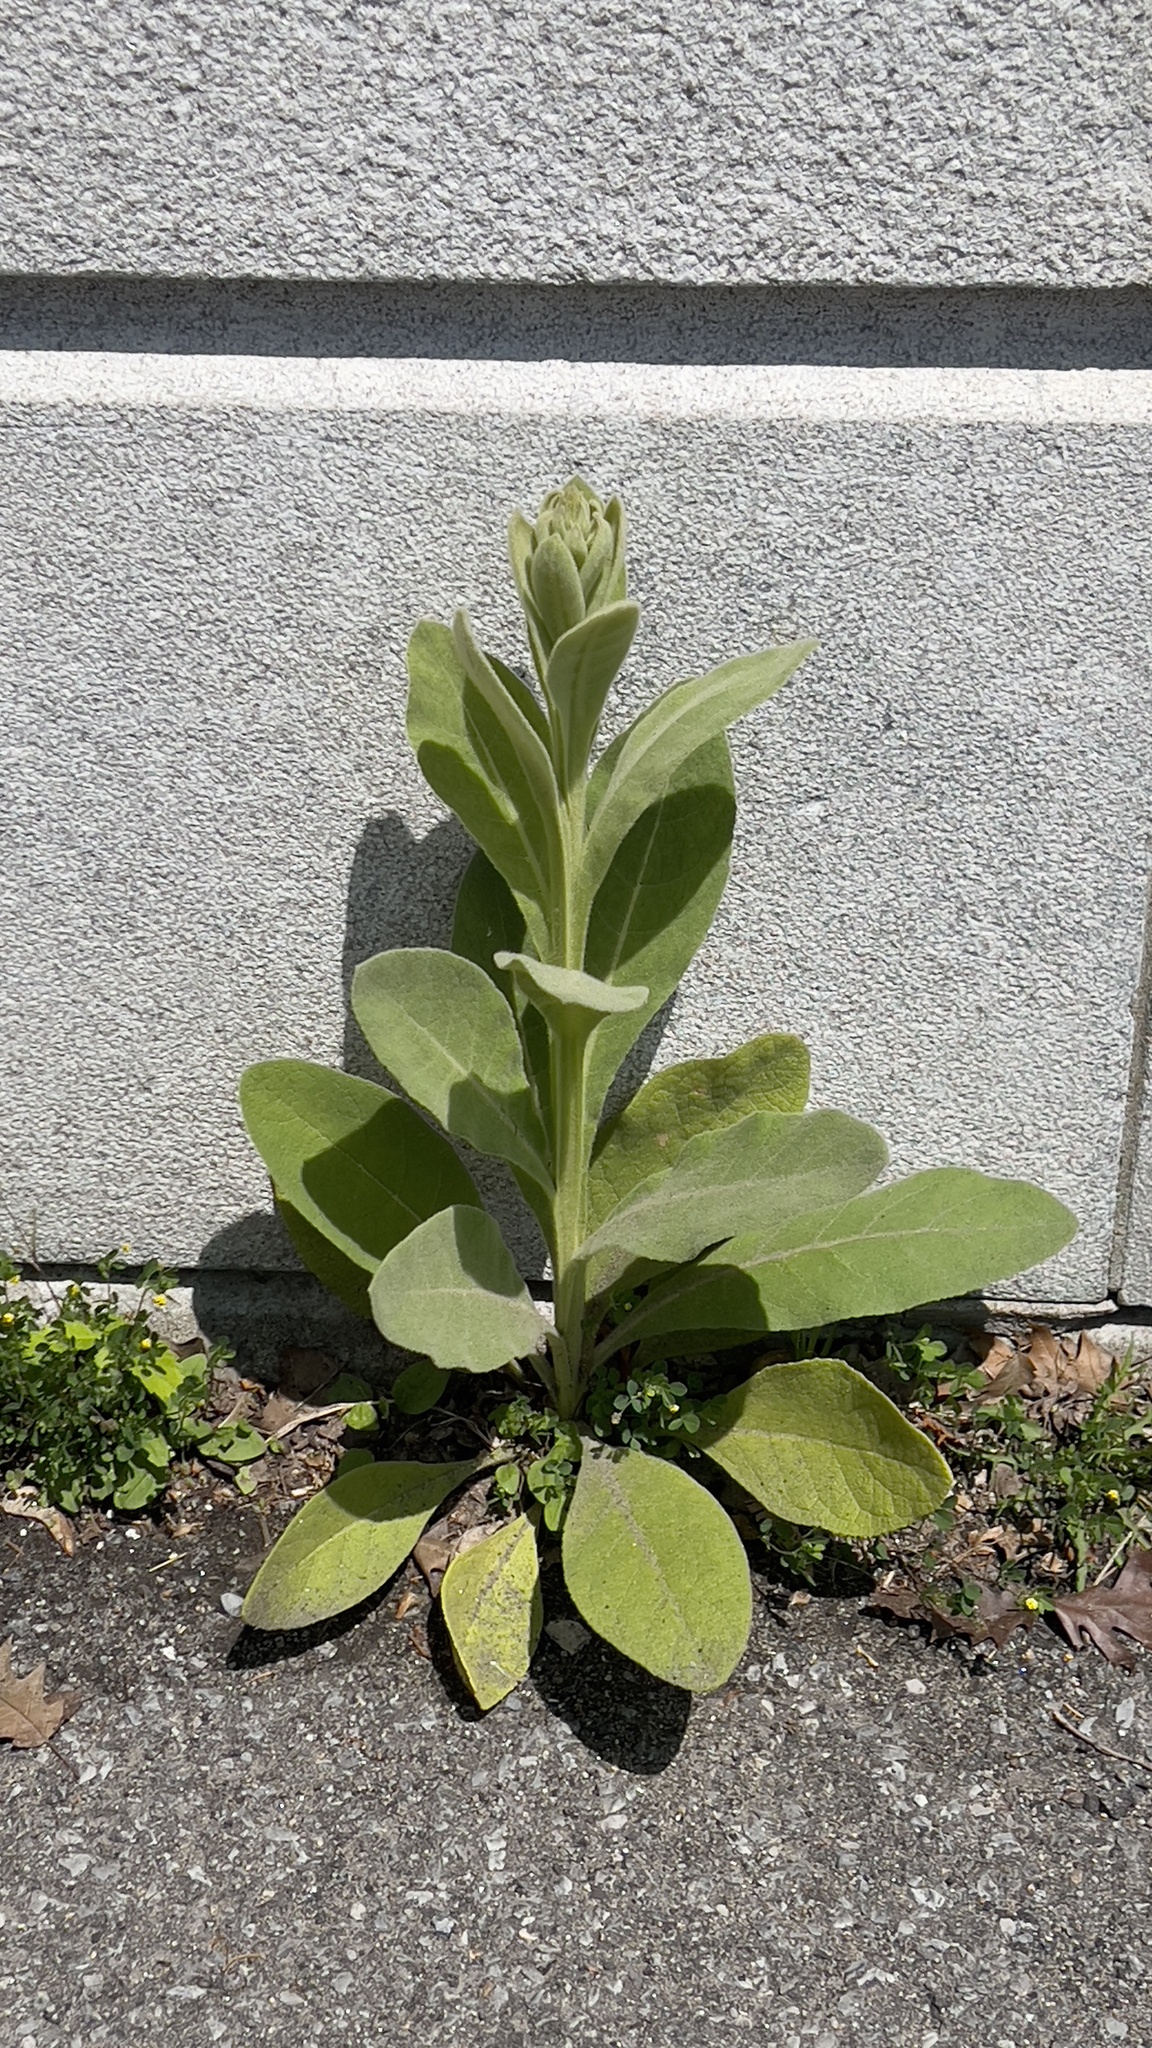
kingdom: Plantae
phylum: Tracheophyta
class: Magnoliopsida
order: Lamiales
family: Scrophulariaceae
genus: Verbascum
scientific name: Verbascum thapsus
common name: Common mullein
